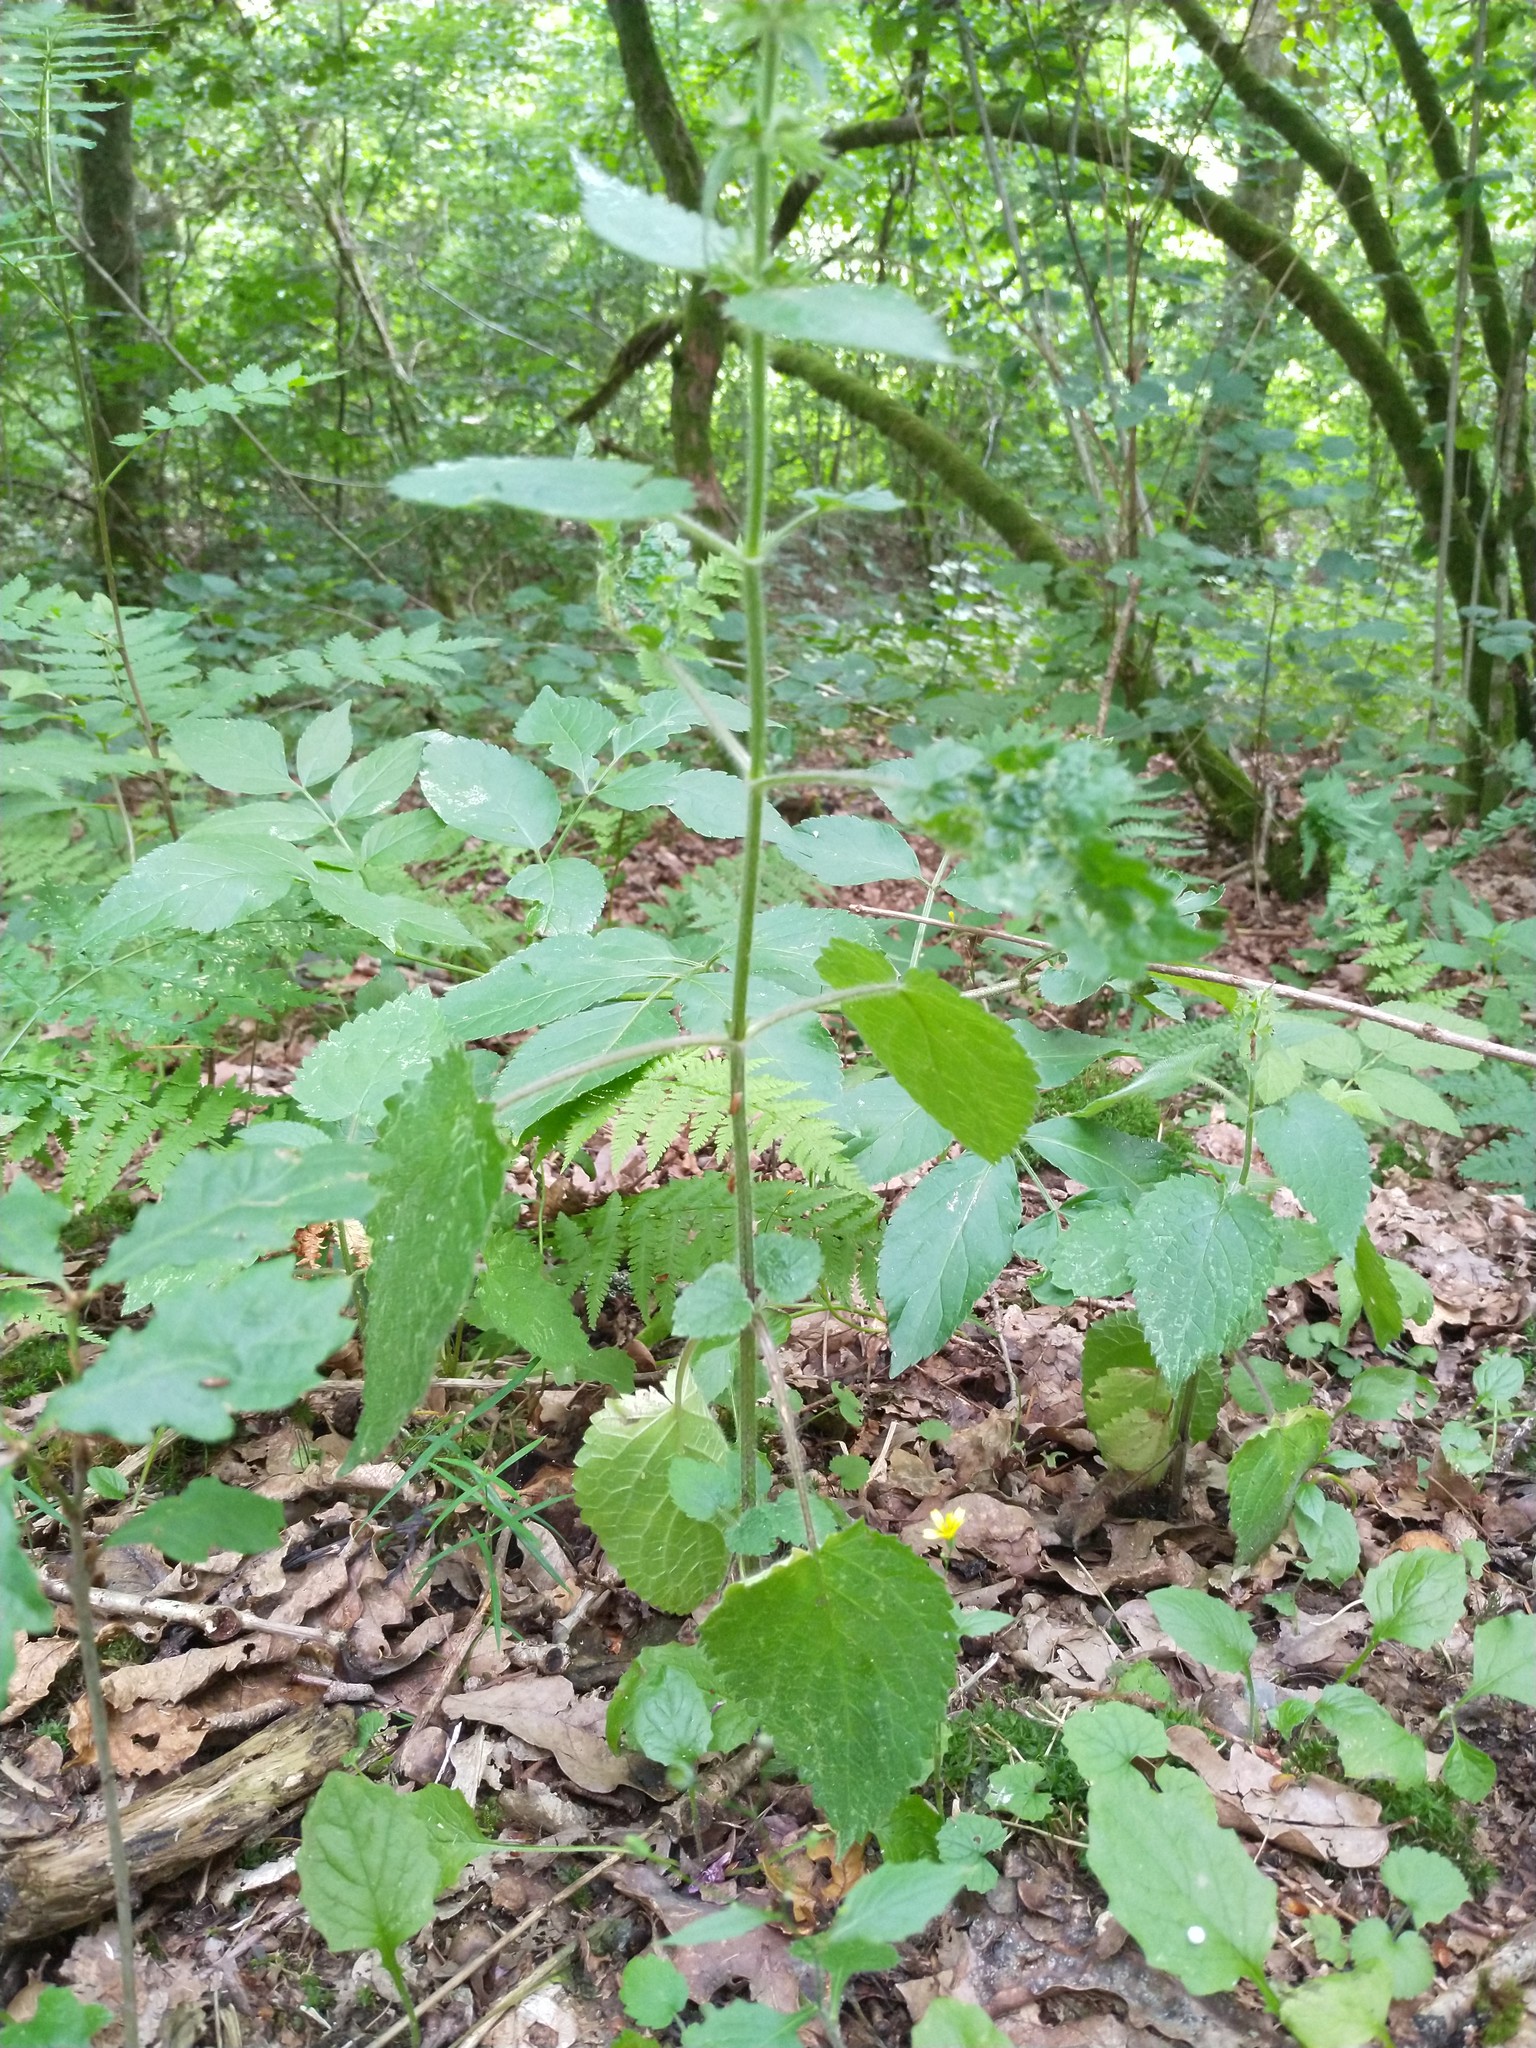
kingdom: Plantae
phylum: Tracheophyta
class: Magnoliopsida
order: Lamiales
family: Lamiaceae
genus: Stachys
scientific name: Stachys sylvatica
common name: Hedge woundwort
